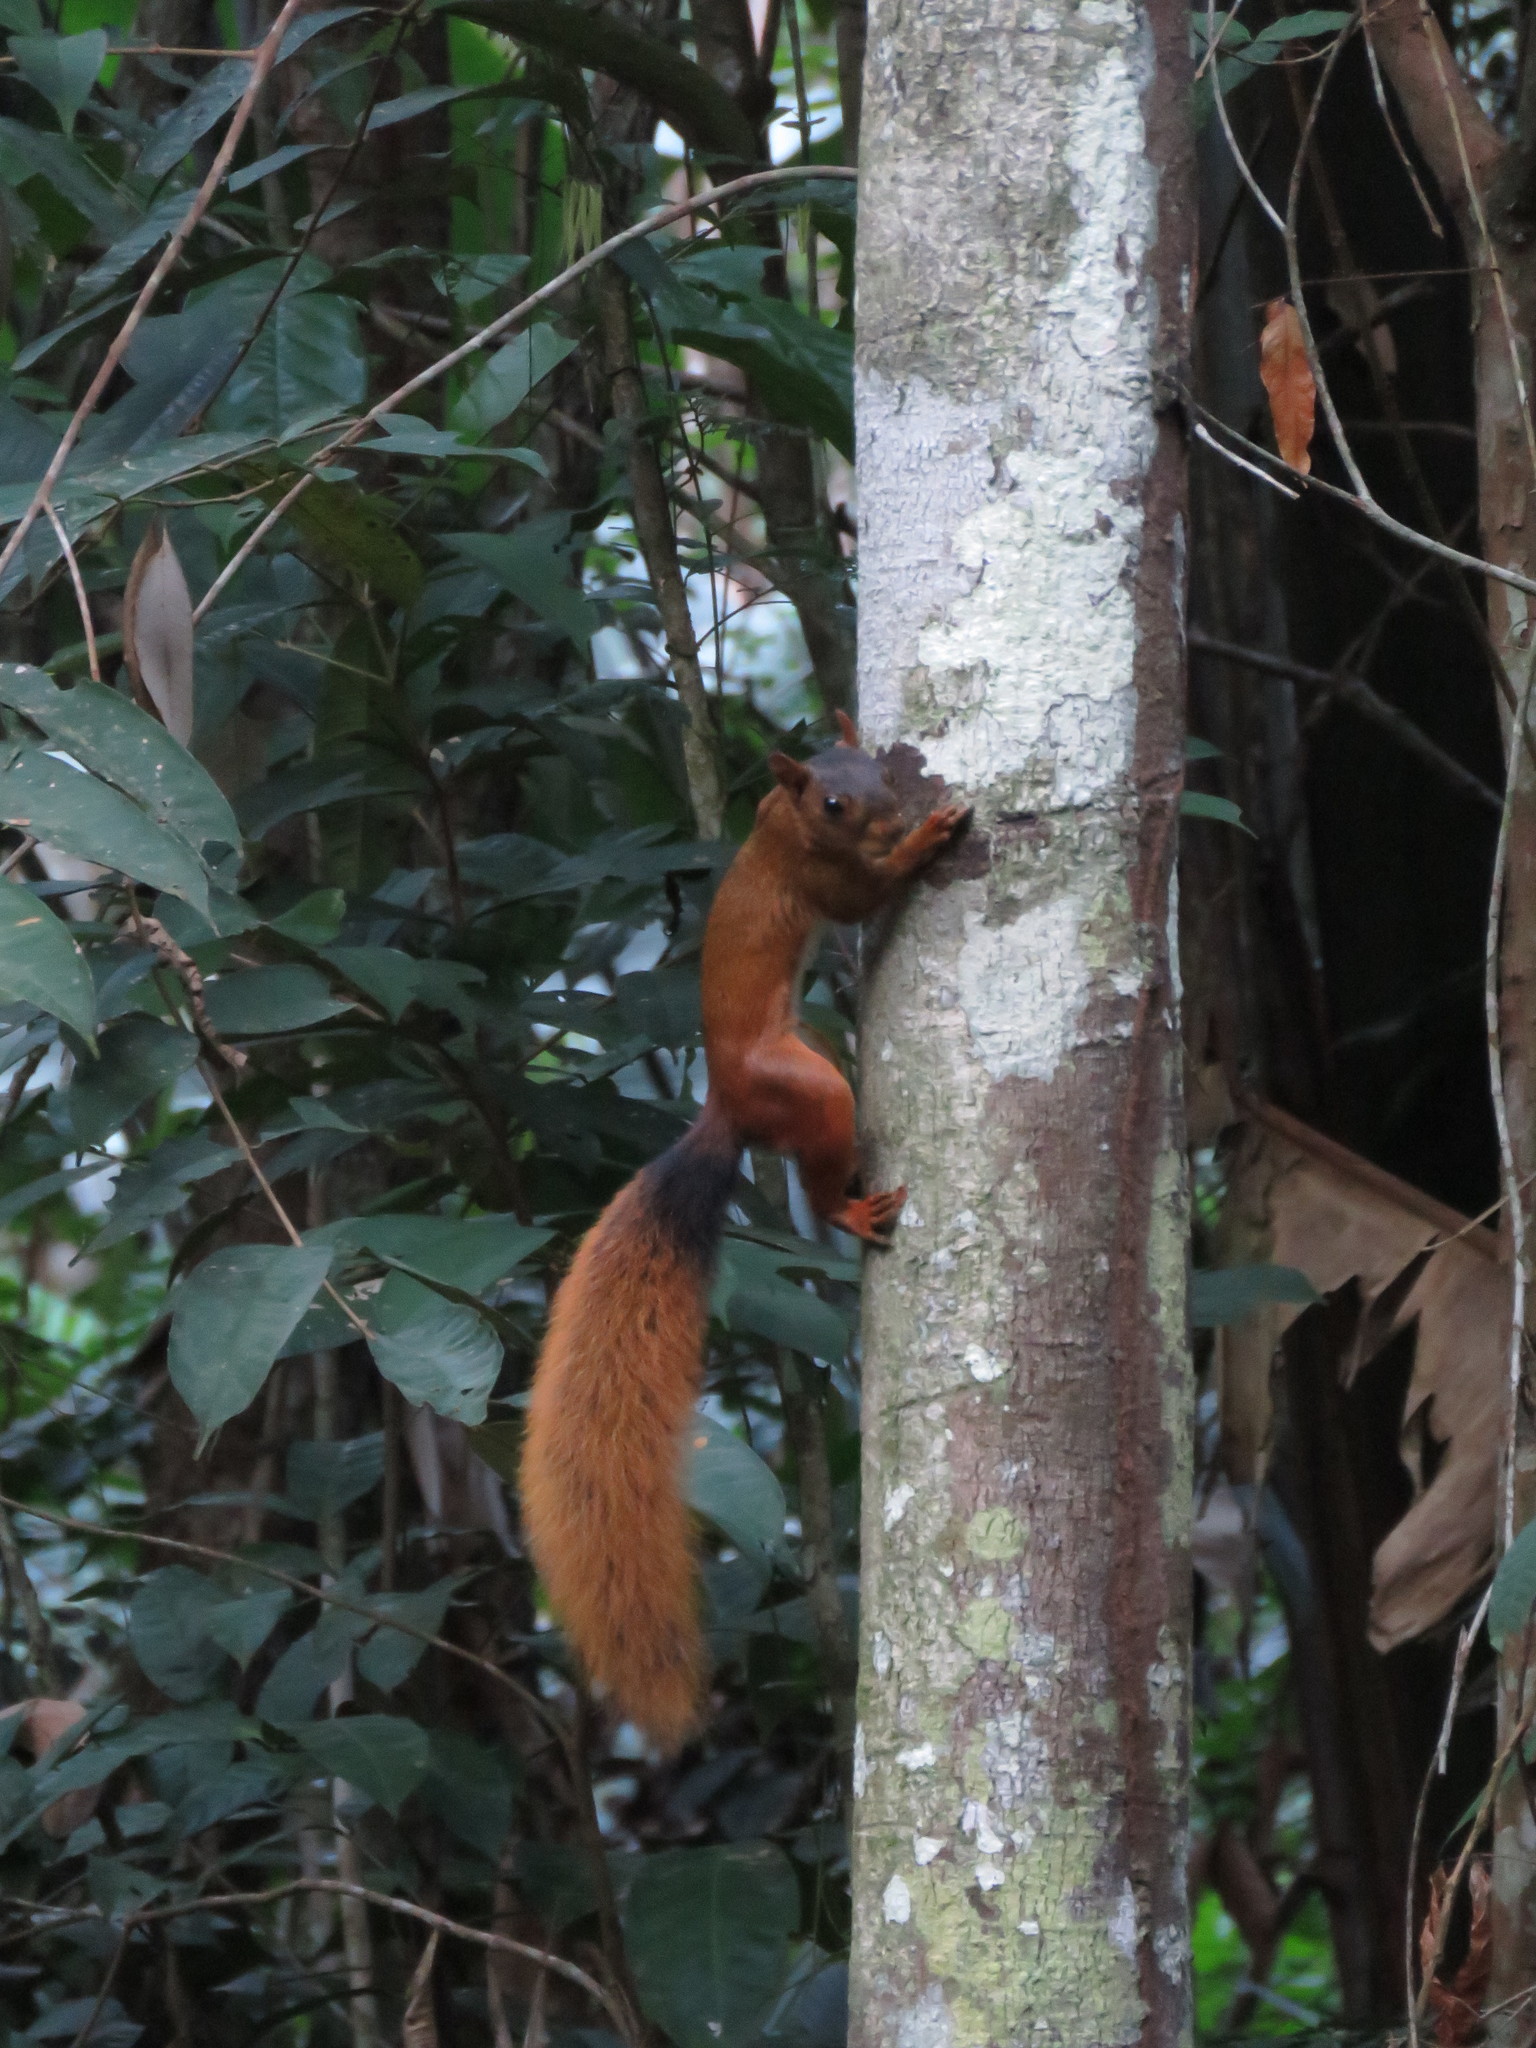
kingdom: Animalia
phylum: Chordata
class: Mammalia
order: Rodentia
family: Sciuridae
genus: Sciurus
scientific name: Sciurus spadiceus
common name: Southern amazon red squirrel
